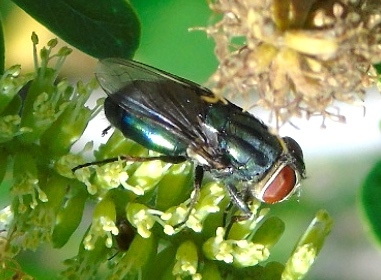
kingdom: Animalia
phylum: Arthropoda
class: Insecta
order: Diptera
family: Calliphoridae
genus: Cochliomyia
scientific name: Cochliomyia
